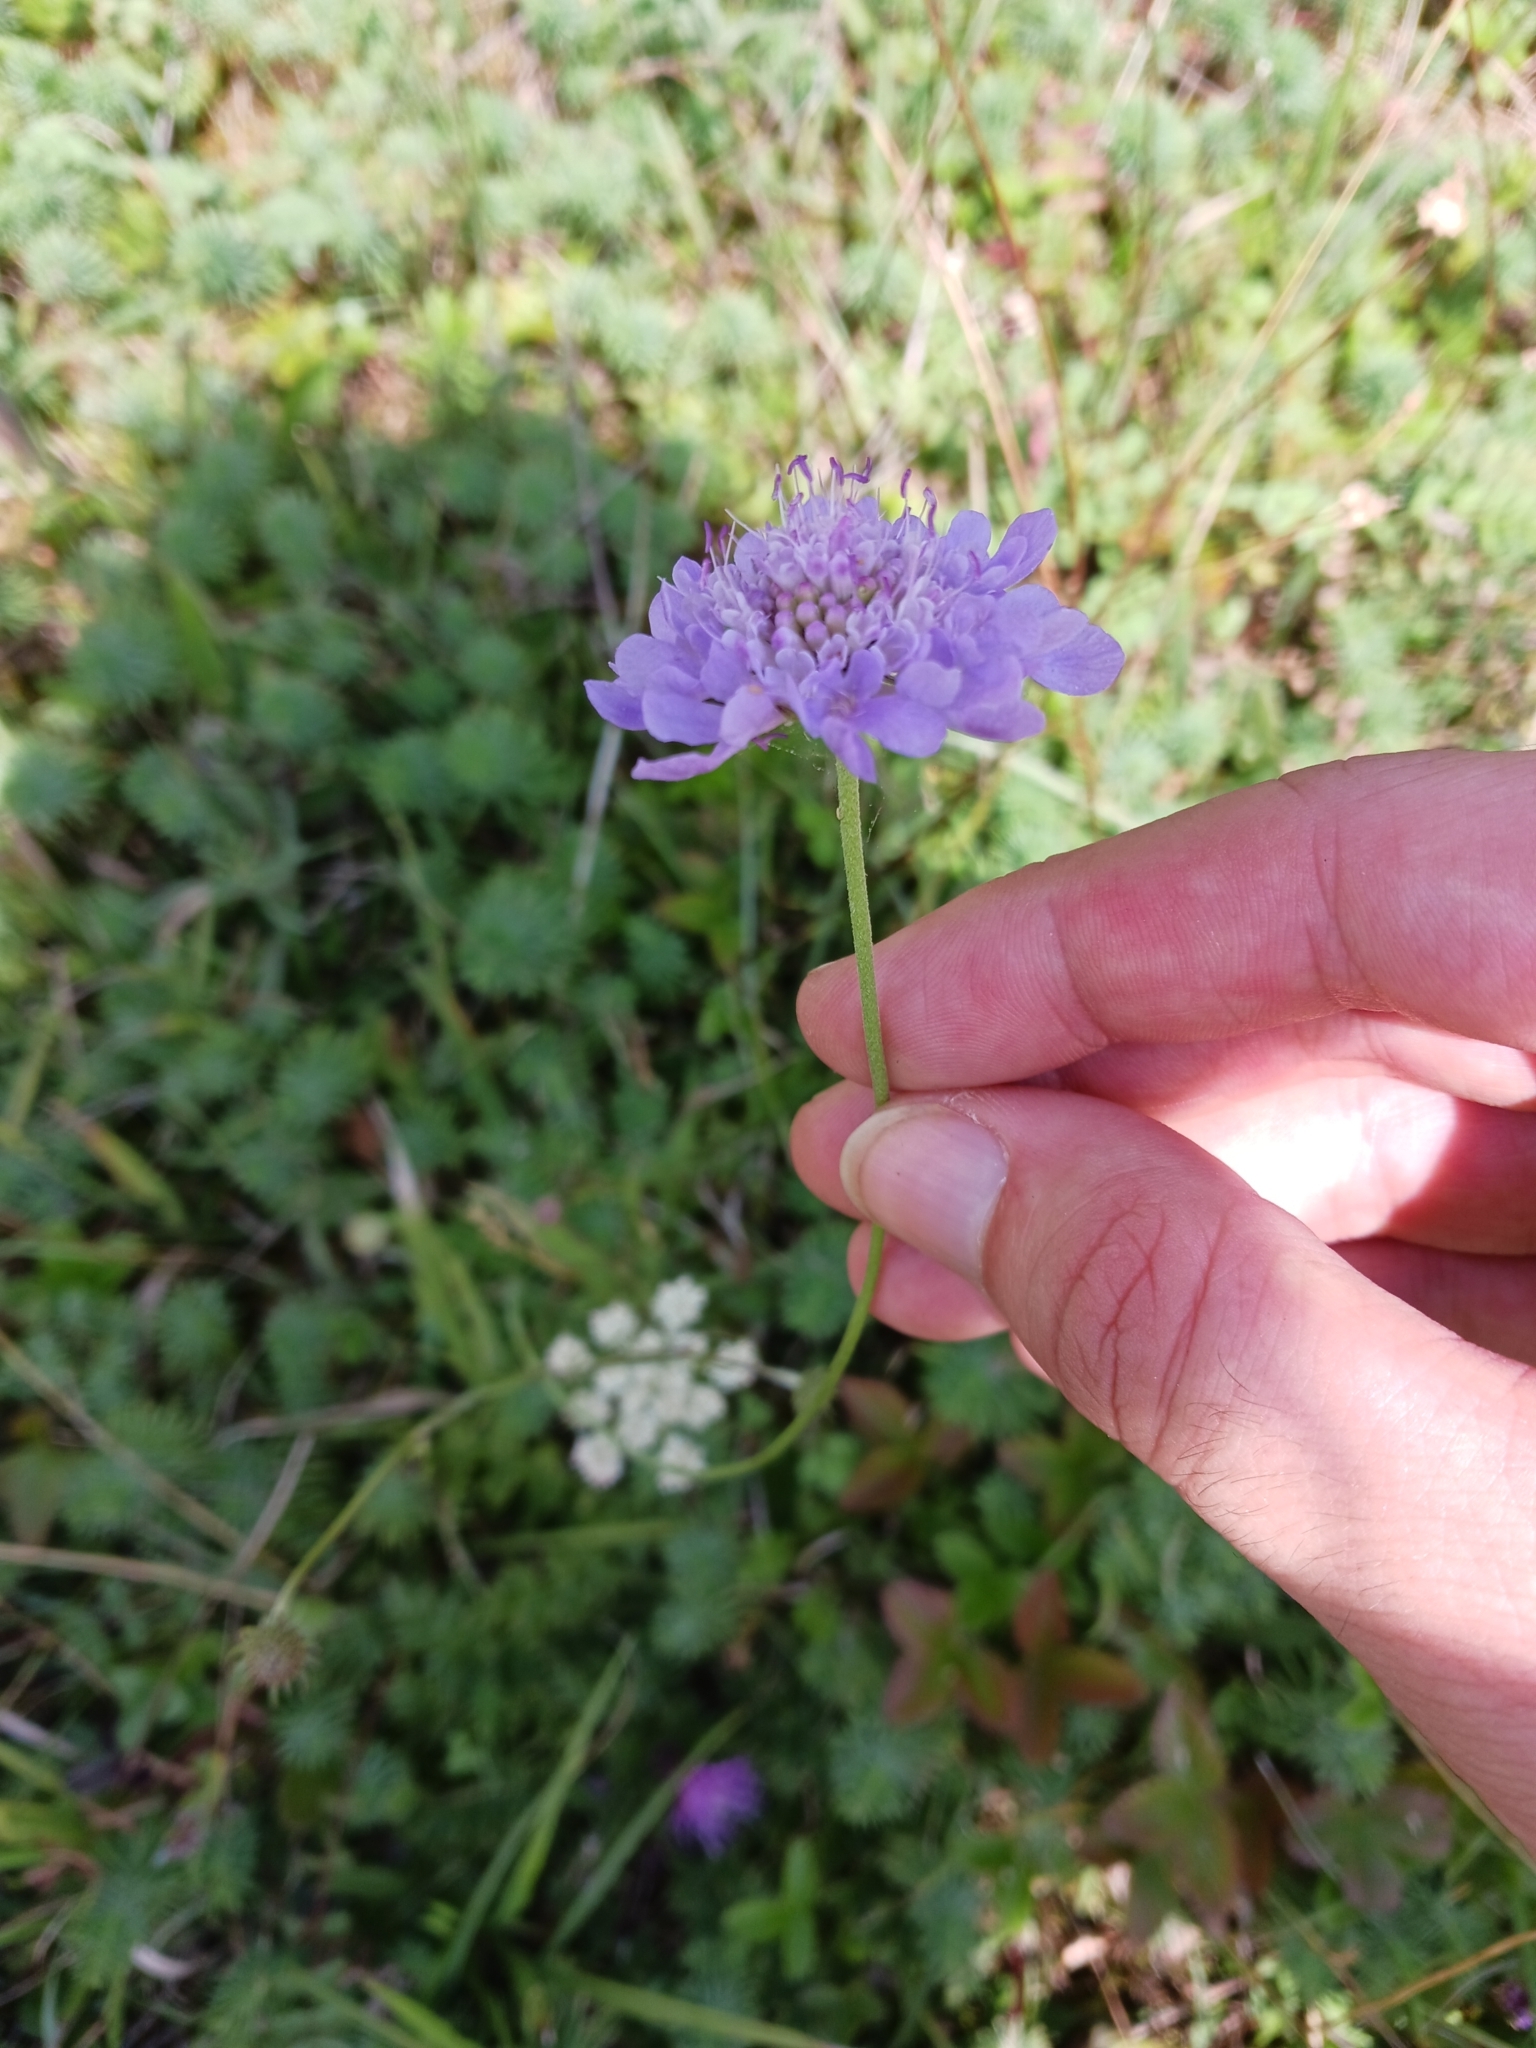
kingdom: Plantae
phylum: Tracheophyta
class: Magnoliopsida
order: Dipsacales
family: Caprifoliaceae
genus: Scabiosa
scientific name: Scabiosa columbaria
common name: Small scabious
